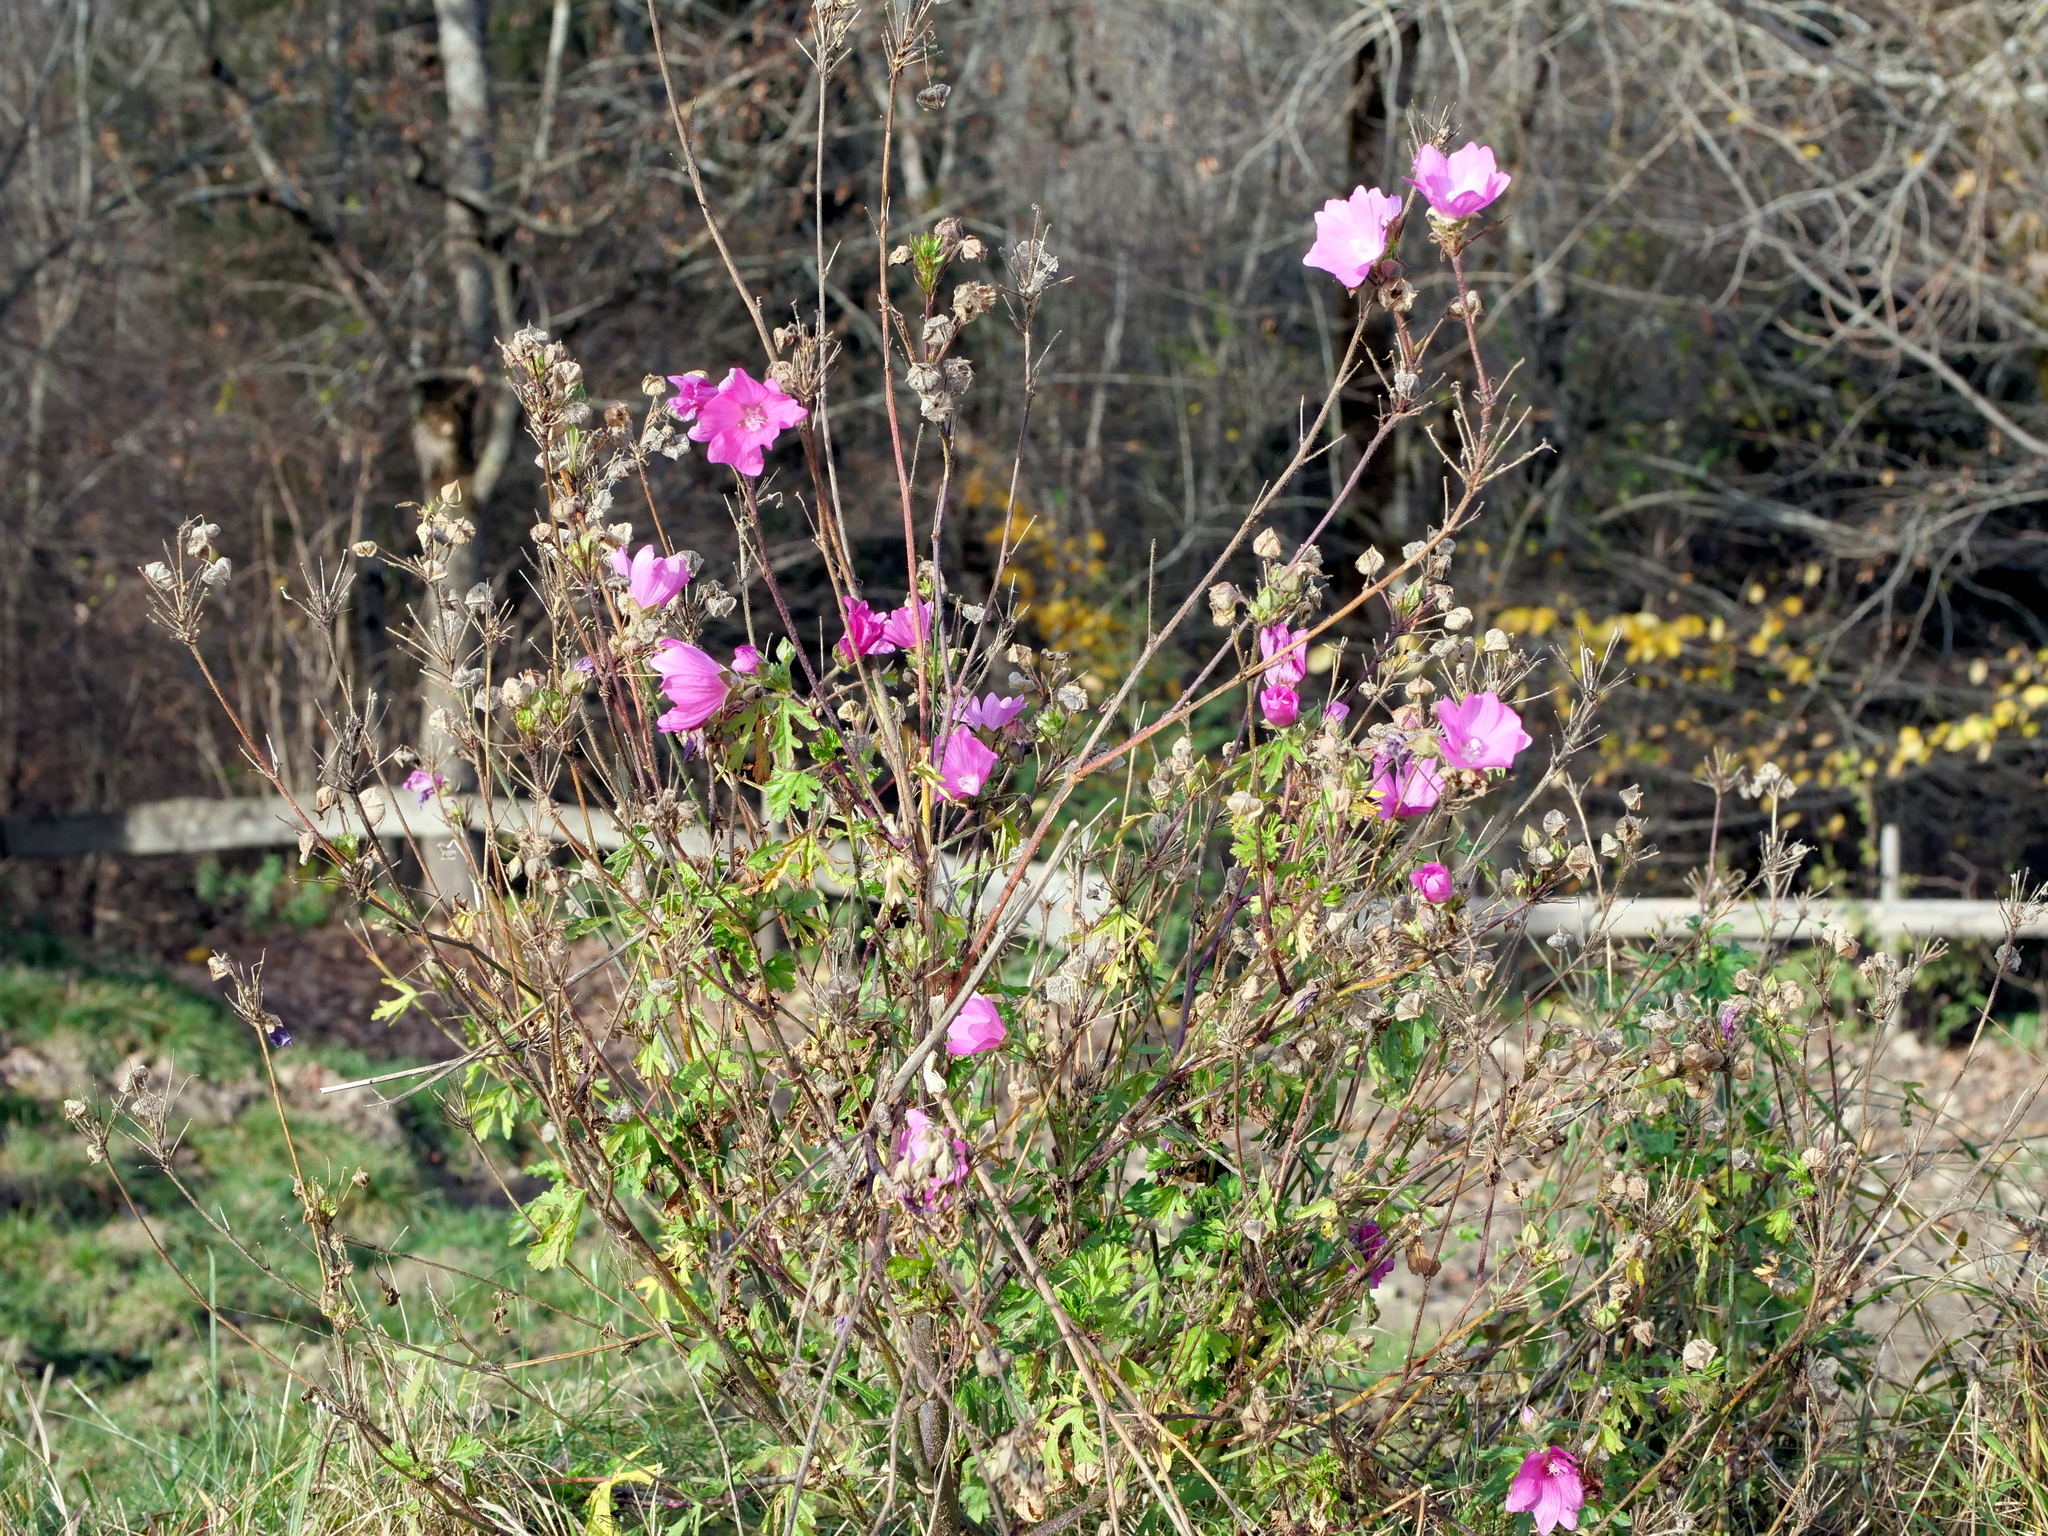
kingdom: Plantae
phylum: Tracheophyta
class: Magnoliopsida
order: Malvales
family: Malvaceae
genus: Malva
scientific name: Malva
